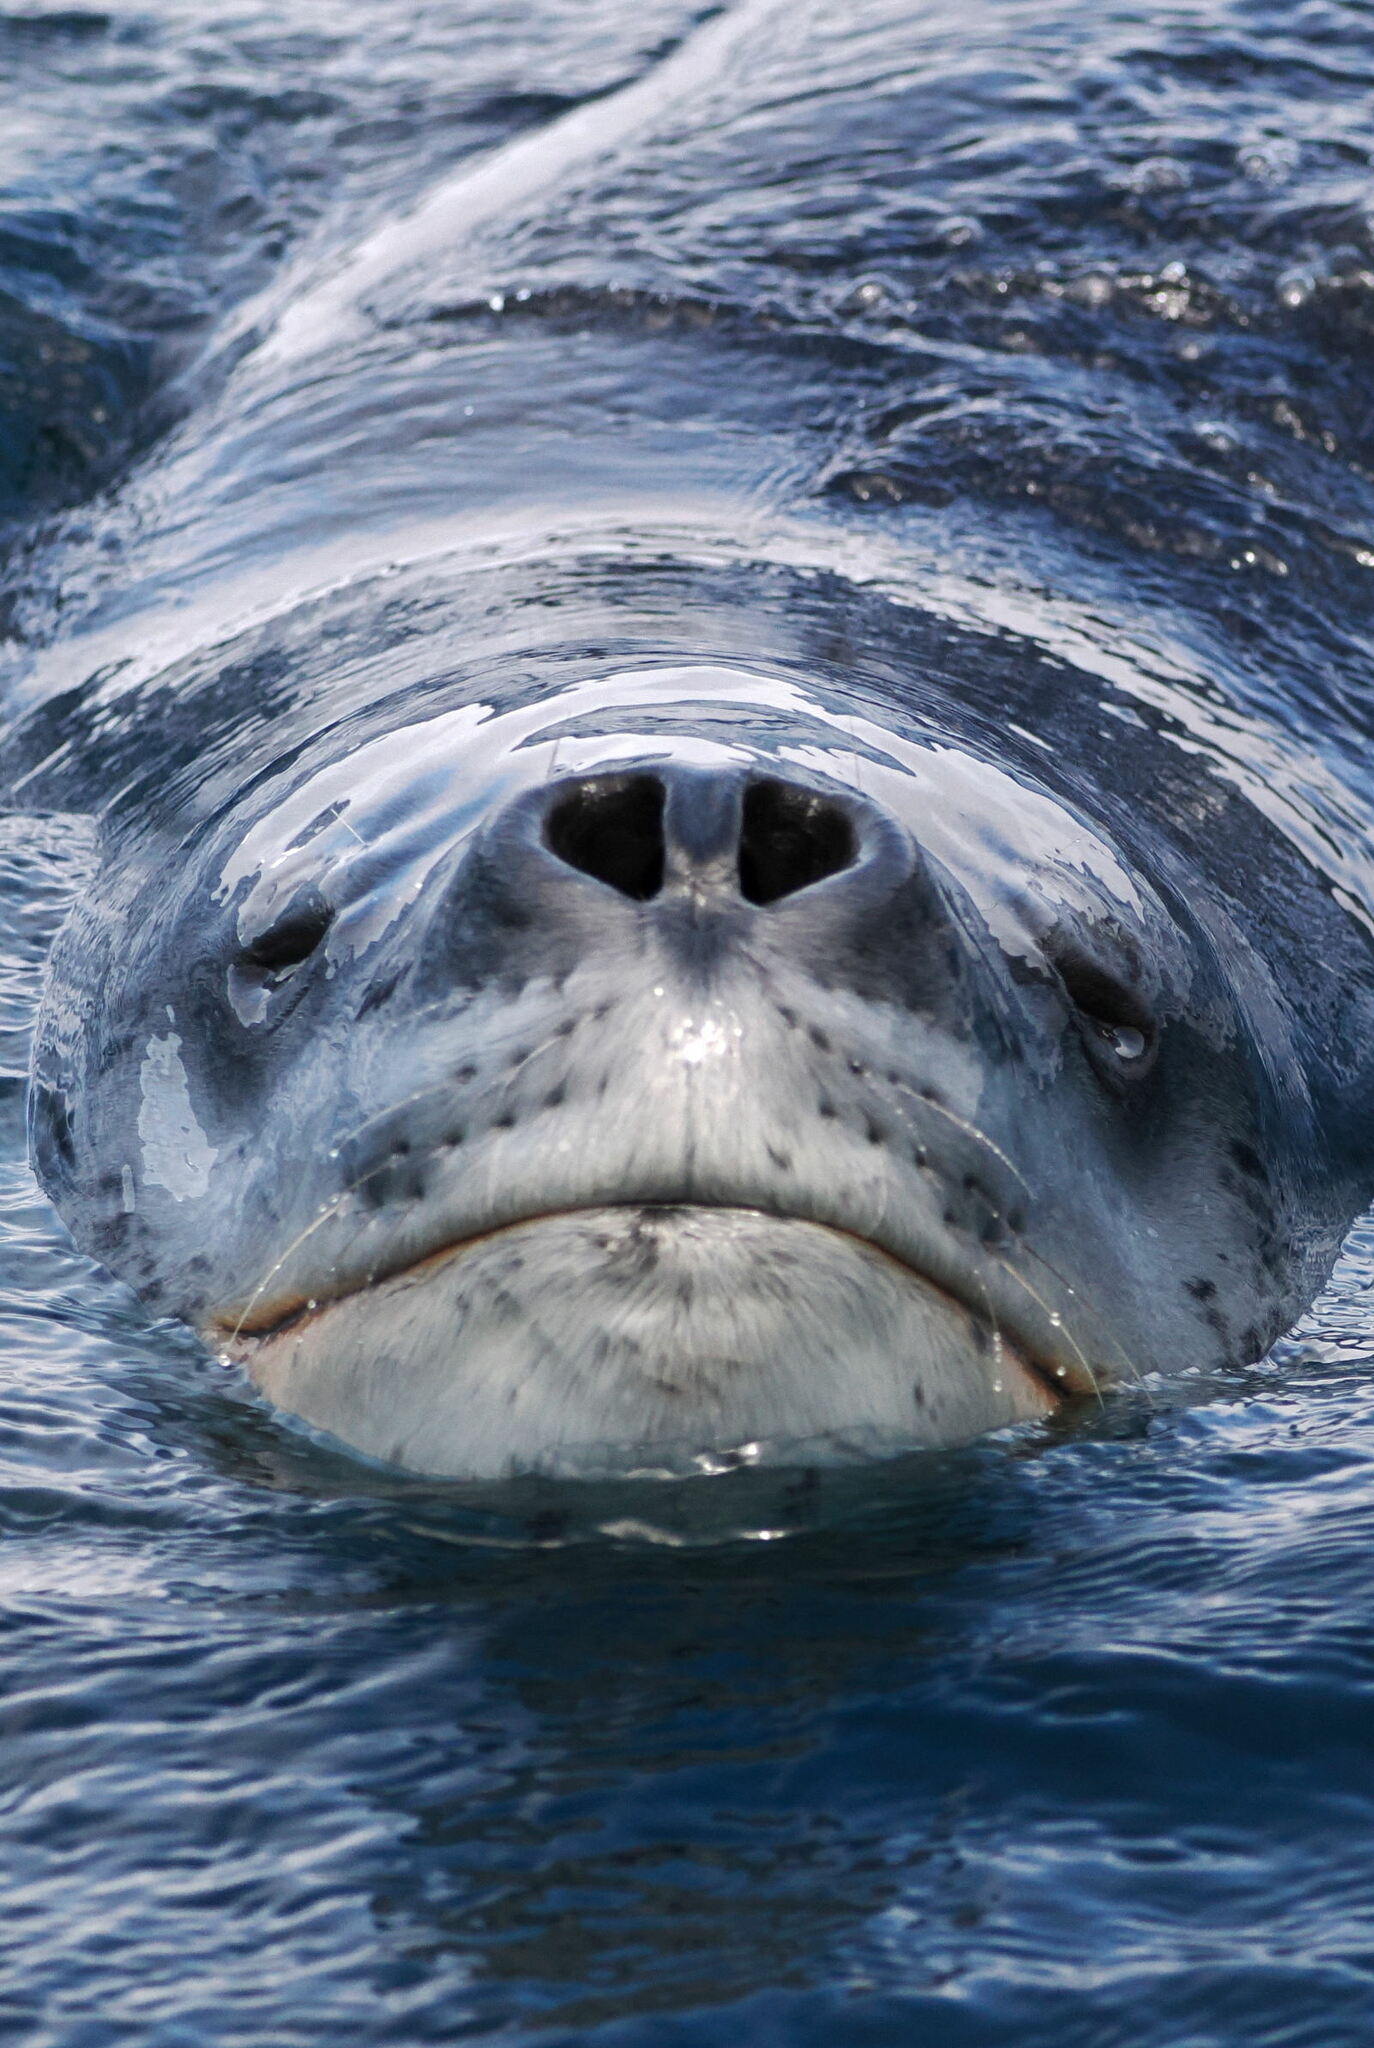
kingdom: Animalia
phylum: Chordata
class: Mammalia
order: Carnivora
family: Phocidae
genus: Hydrurga
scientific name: Hydrurga leptonyx
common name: Leopard seal
